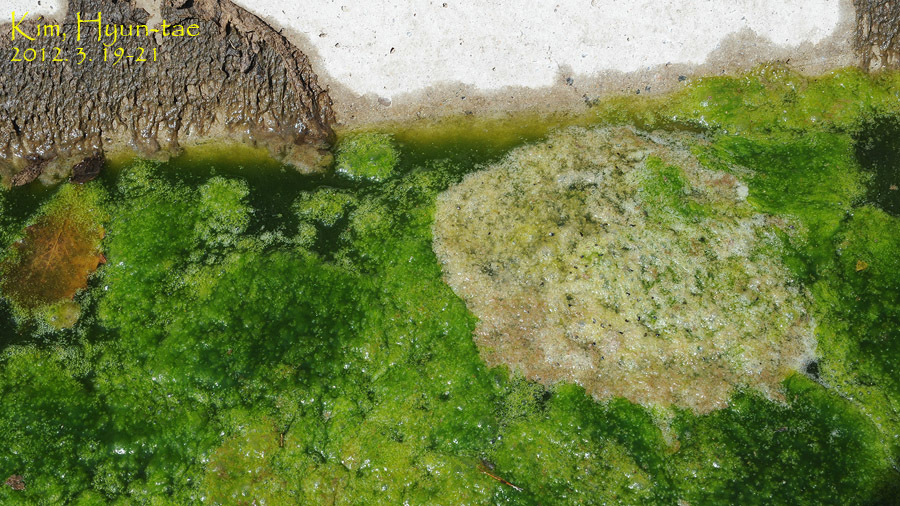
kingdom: Animalia
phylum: Chordata
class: Amphibia
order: Anura
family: Ranidae
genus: Rana
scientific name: Rana uenoi
